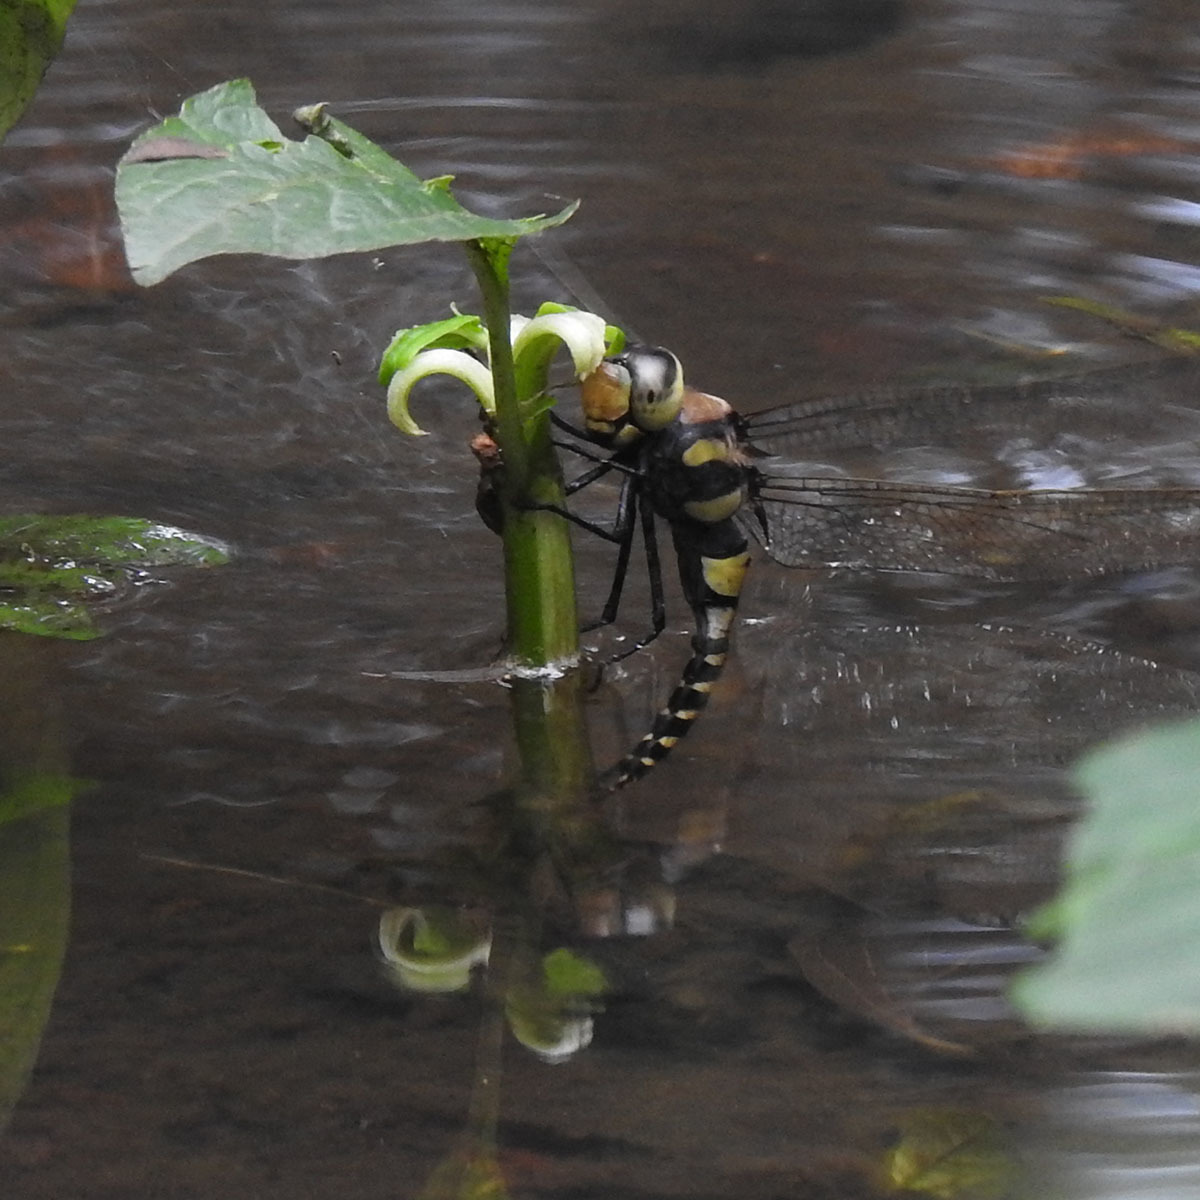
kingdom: Animalia
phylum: Arthropoda
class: Insecta
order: Odonata
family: Aeshnidae
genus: Anax
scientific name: Anax immaculifrons
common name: Magnificent emperor
